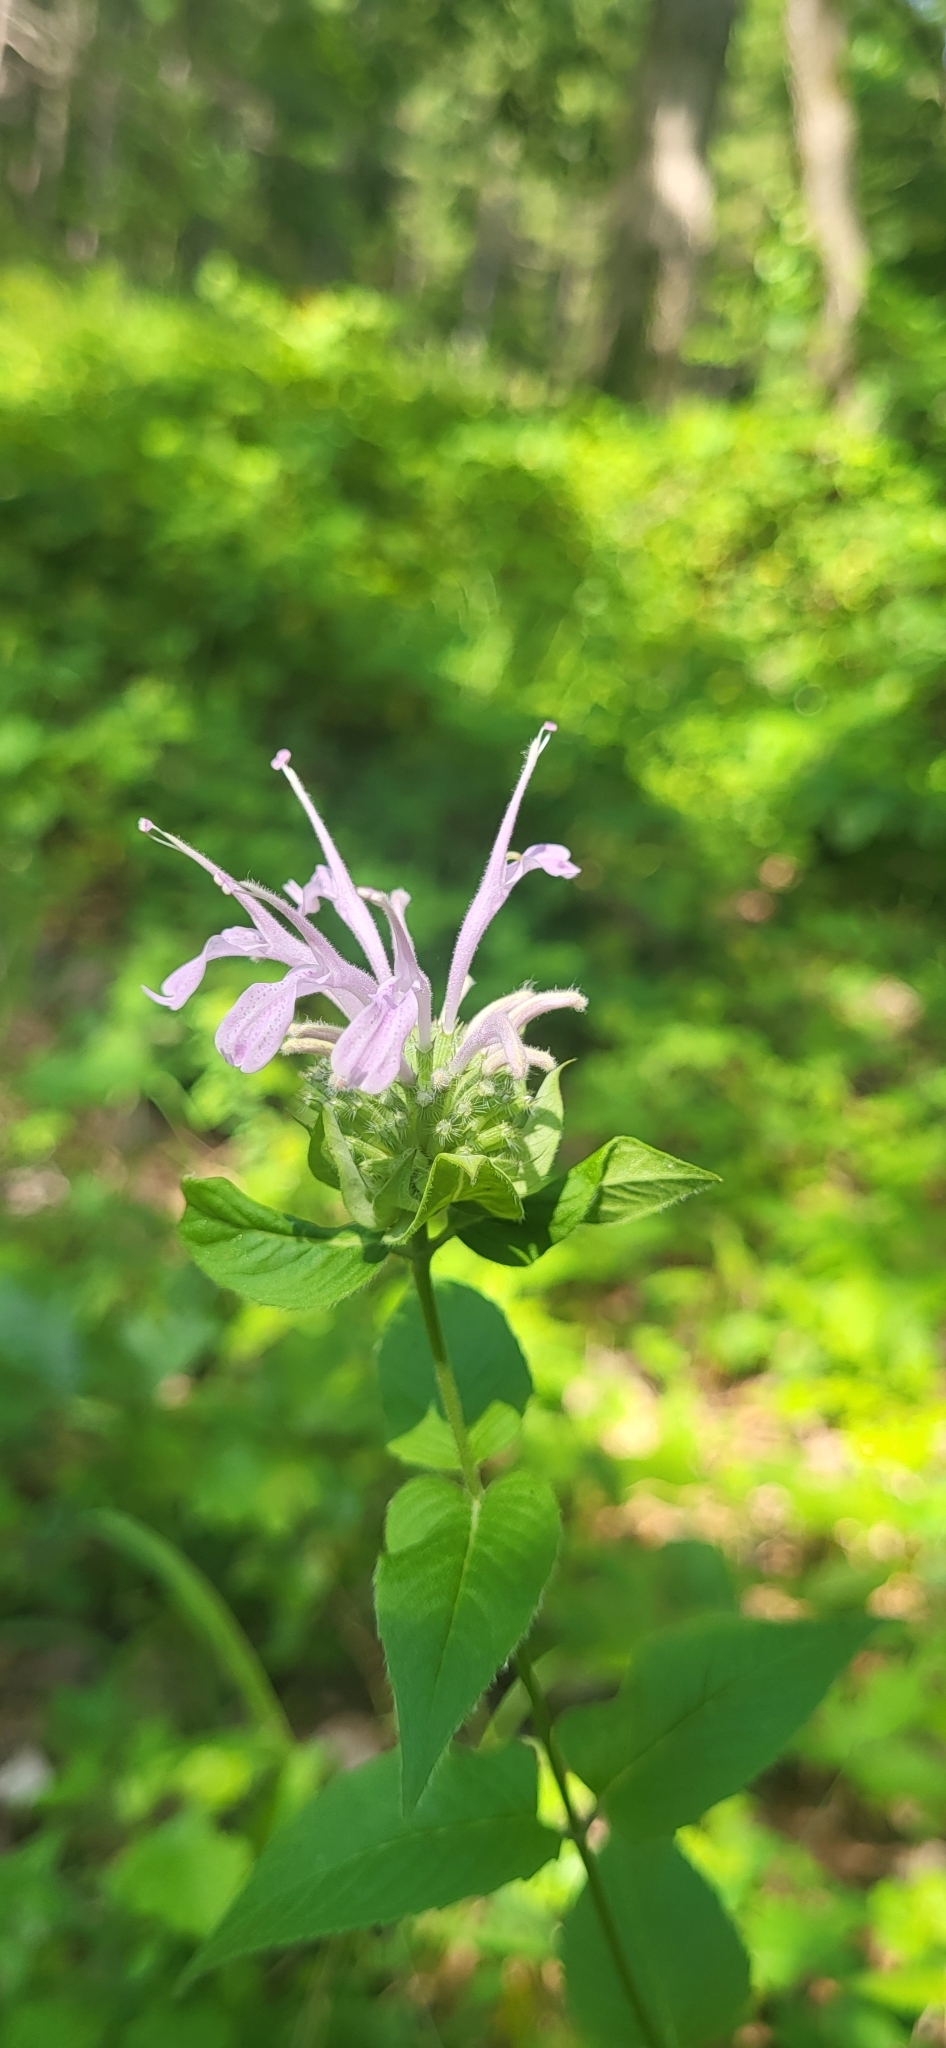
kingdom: Plantae
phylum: Tracheophyta
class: Magnoliopsida
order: Lamiales
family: Lamiaceae
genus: Monarda
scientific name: Monarda fistulosa
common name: Purple beebalm
